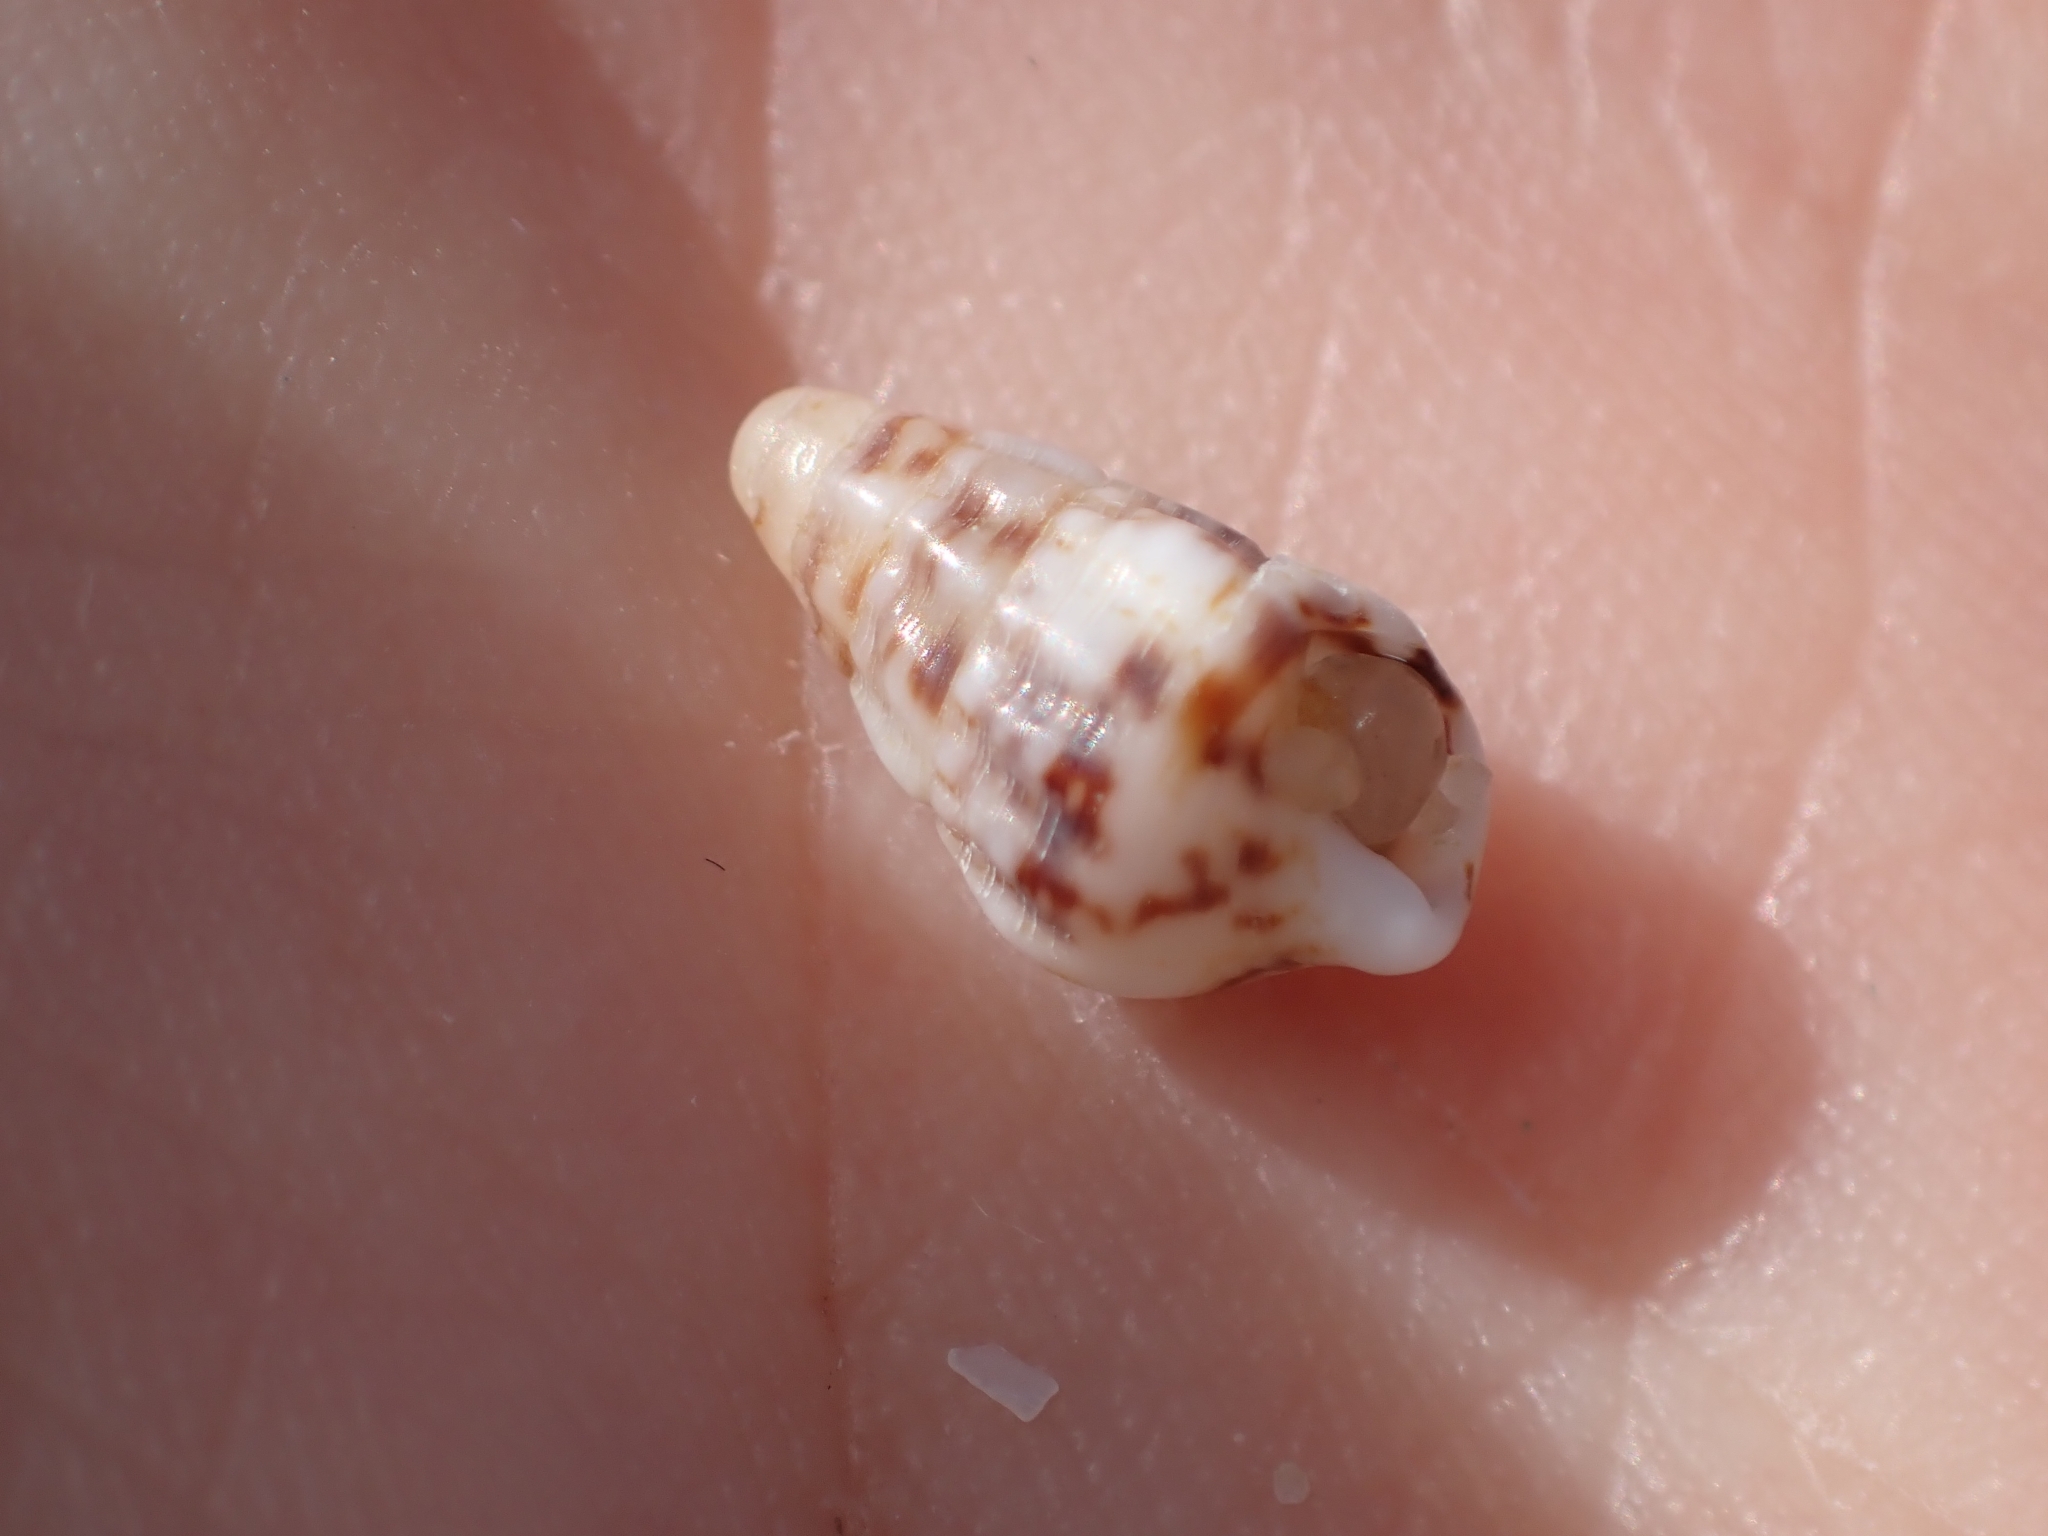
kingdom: Animalia
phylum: Mollusca
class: Gastropoda
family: Cerithiidae
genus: Cerithium
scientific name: Cerithium vulgatum
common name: European cerith
